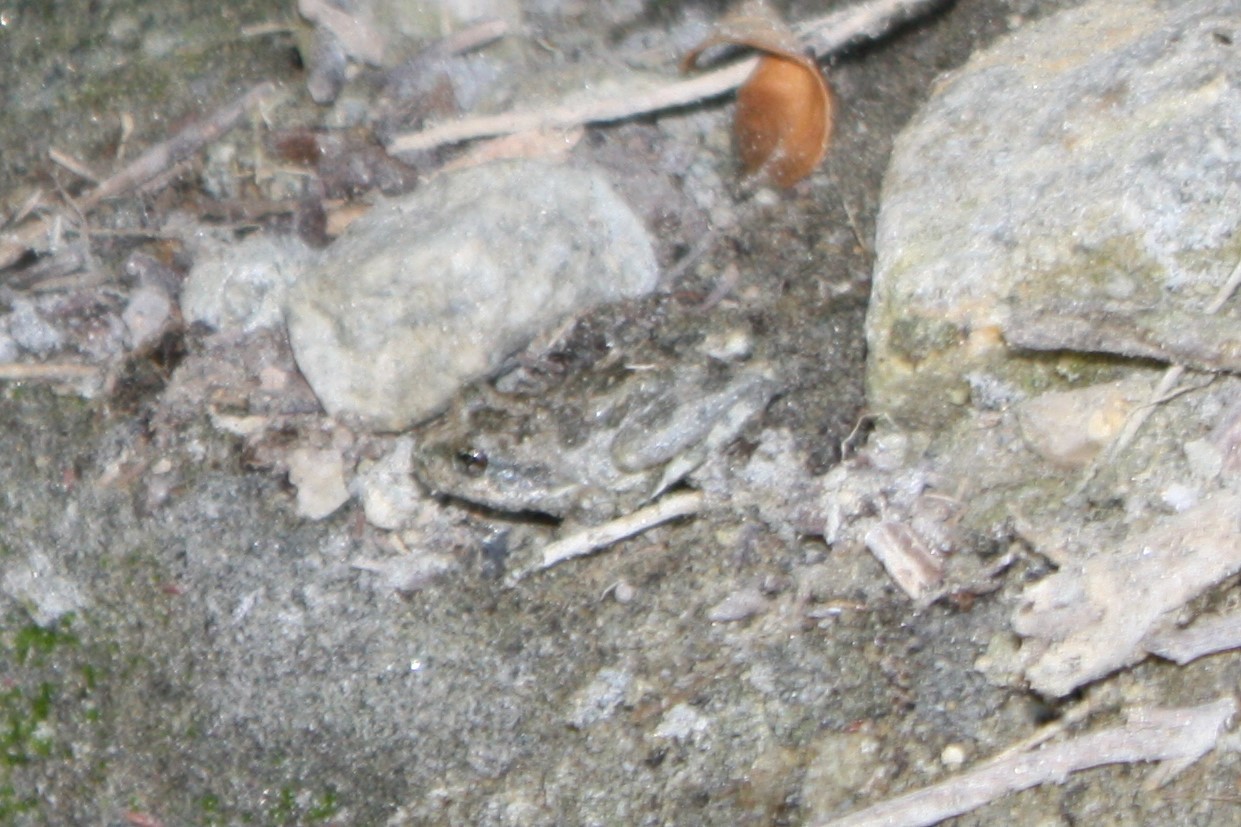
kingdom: Animalia
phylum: Chordata
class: Amphibia
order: Anura
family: Hylidae
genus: Pseudacris
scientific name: Pseudacris cadaverina
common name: California chorus frog
